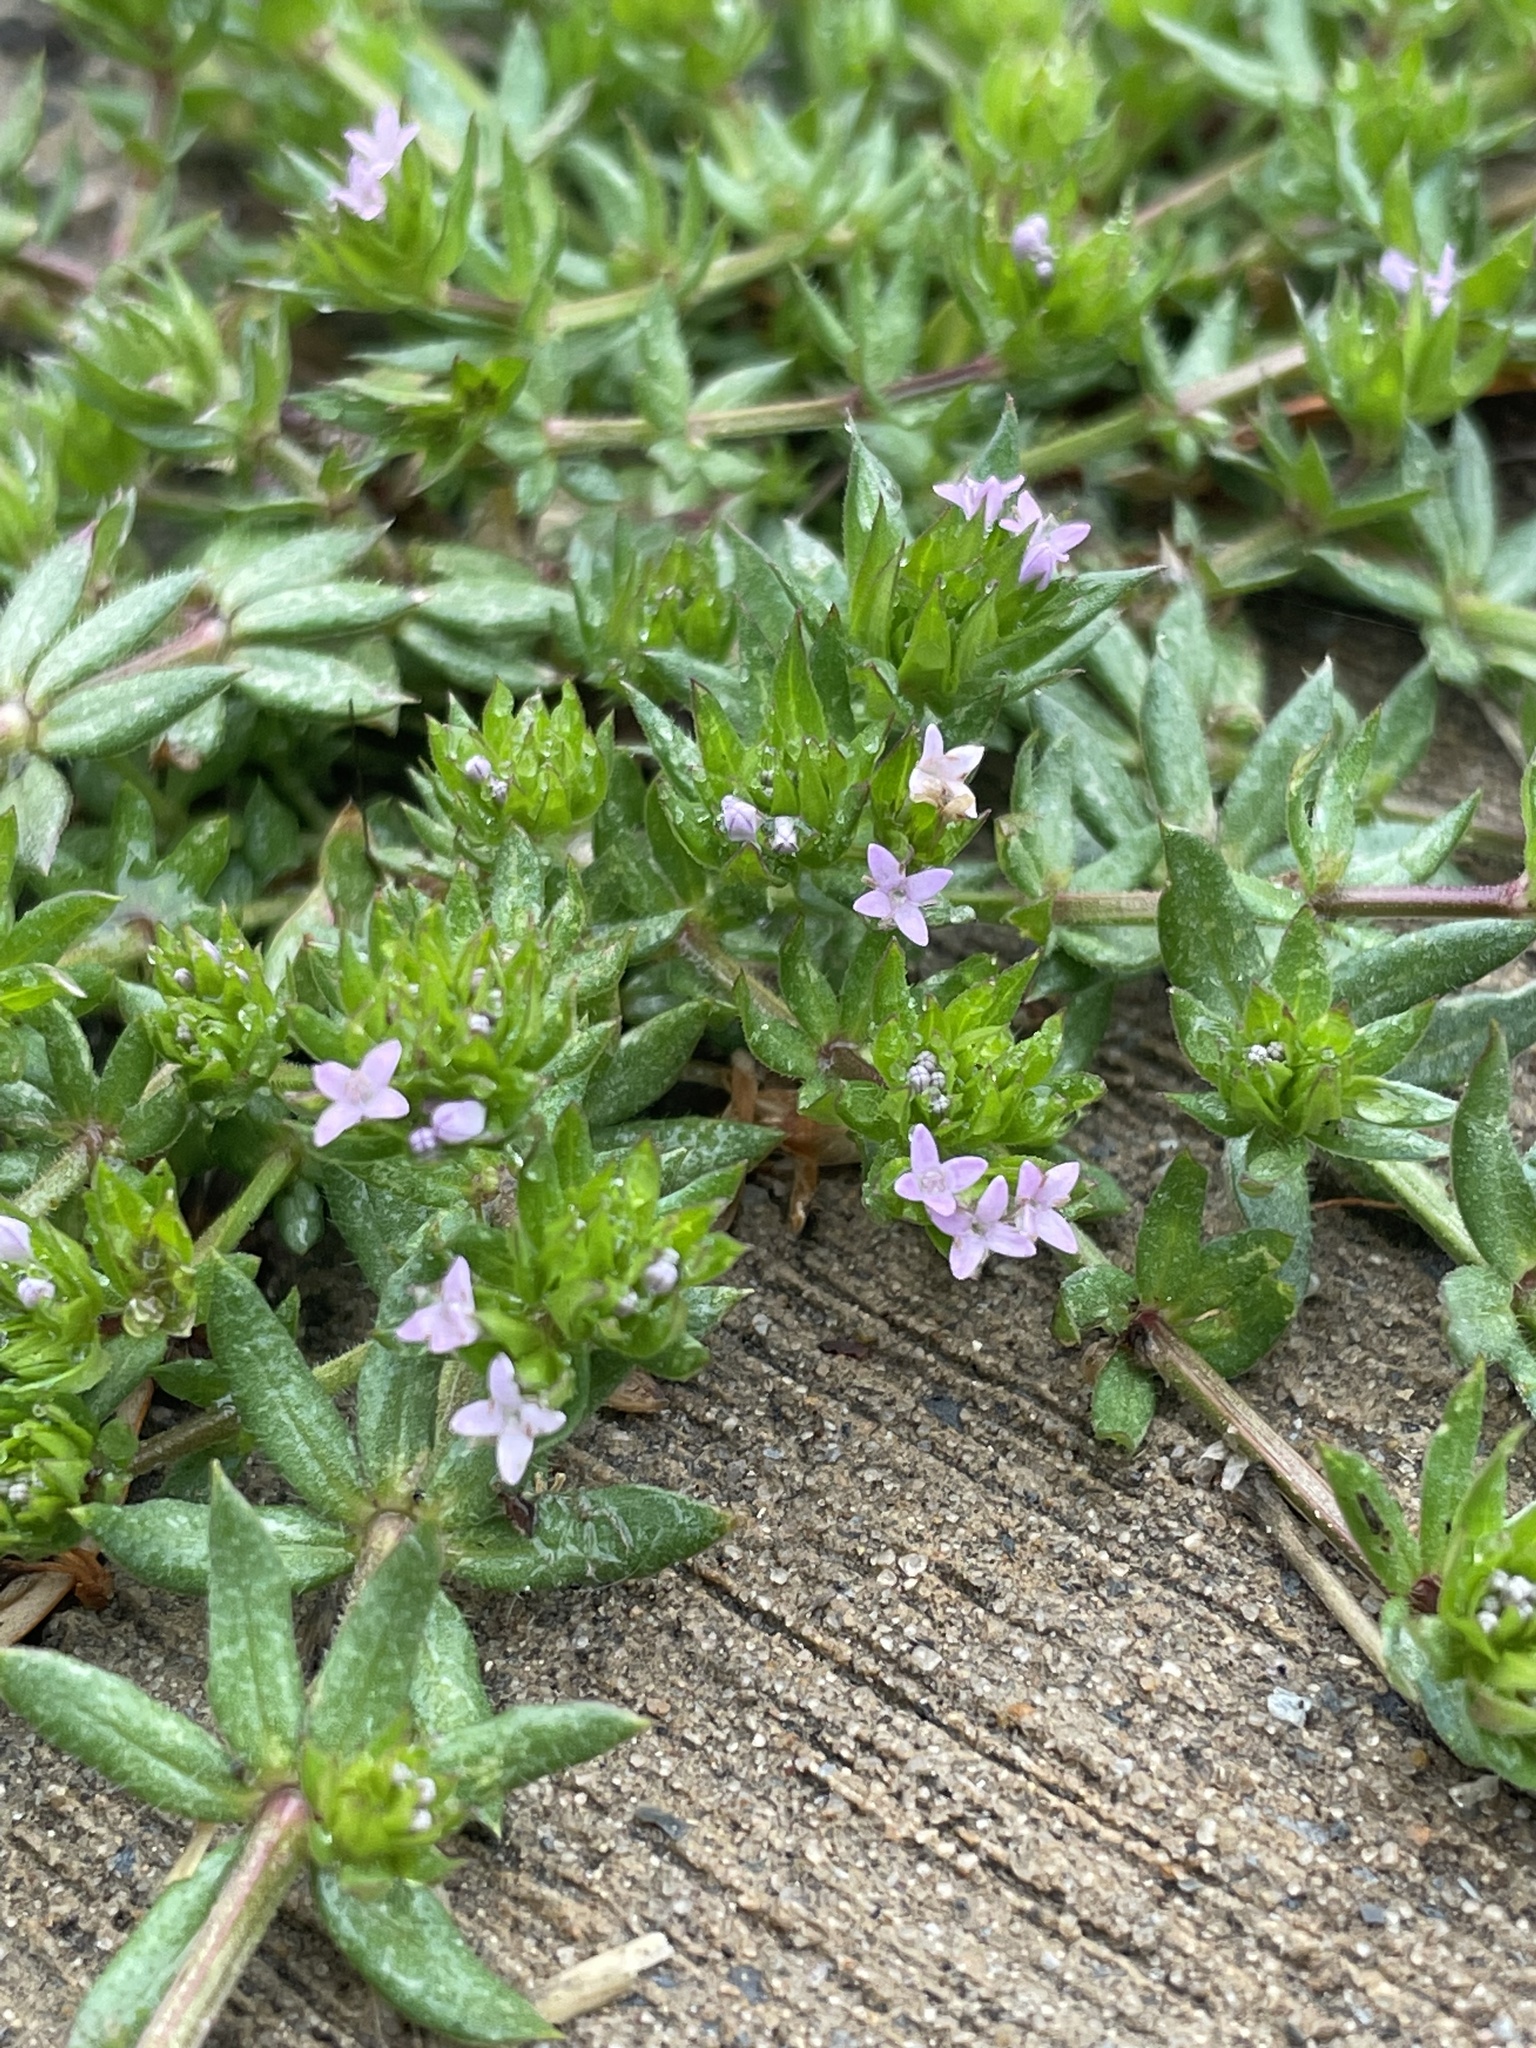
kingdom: Plantae
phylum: Tracheophyta
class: Magnoliopsida
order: Gentianales
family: Rubiaceae
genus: Sherardia
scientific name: Sherardia arvensis
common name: Field madder
